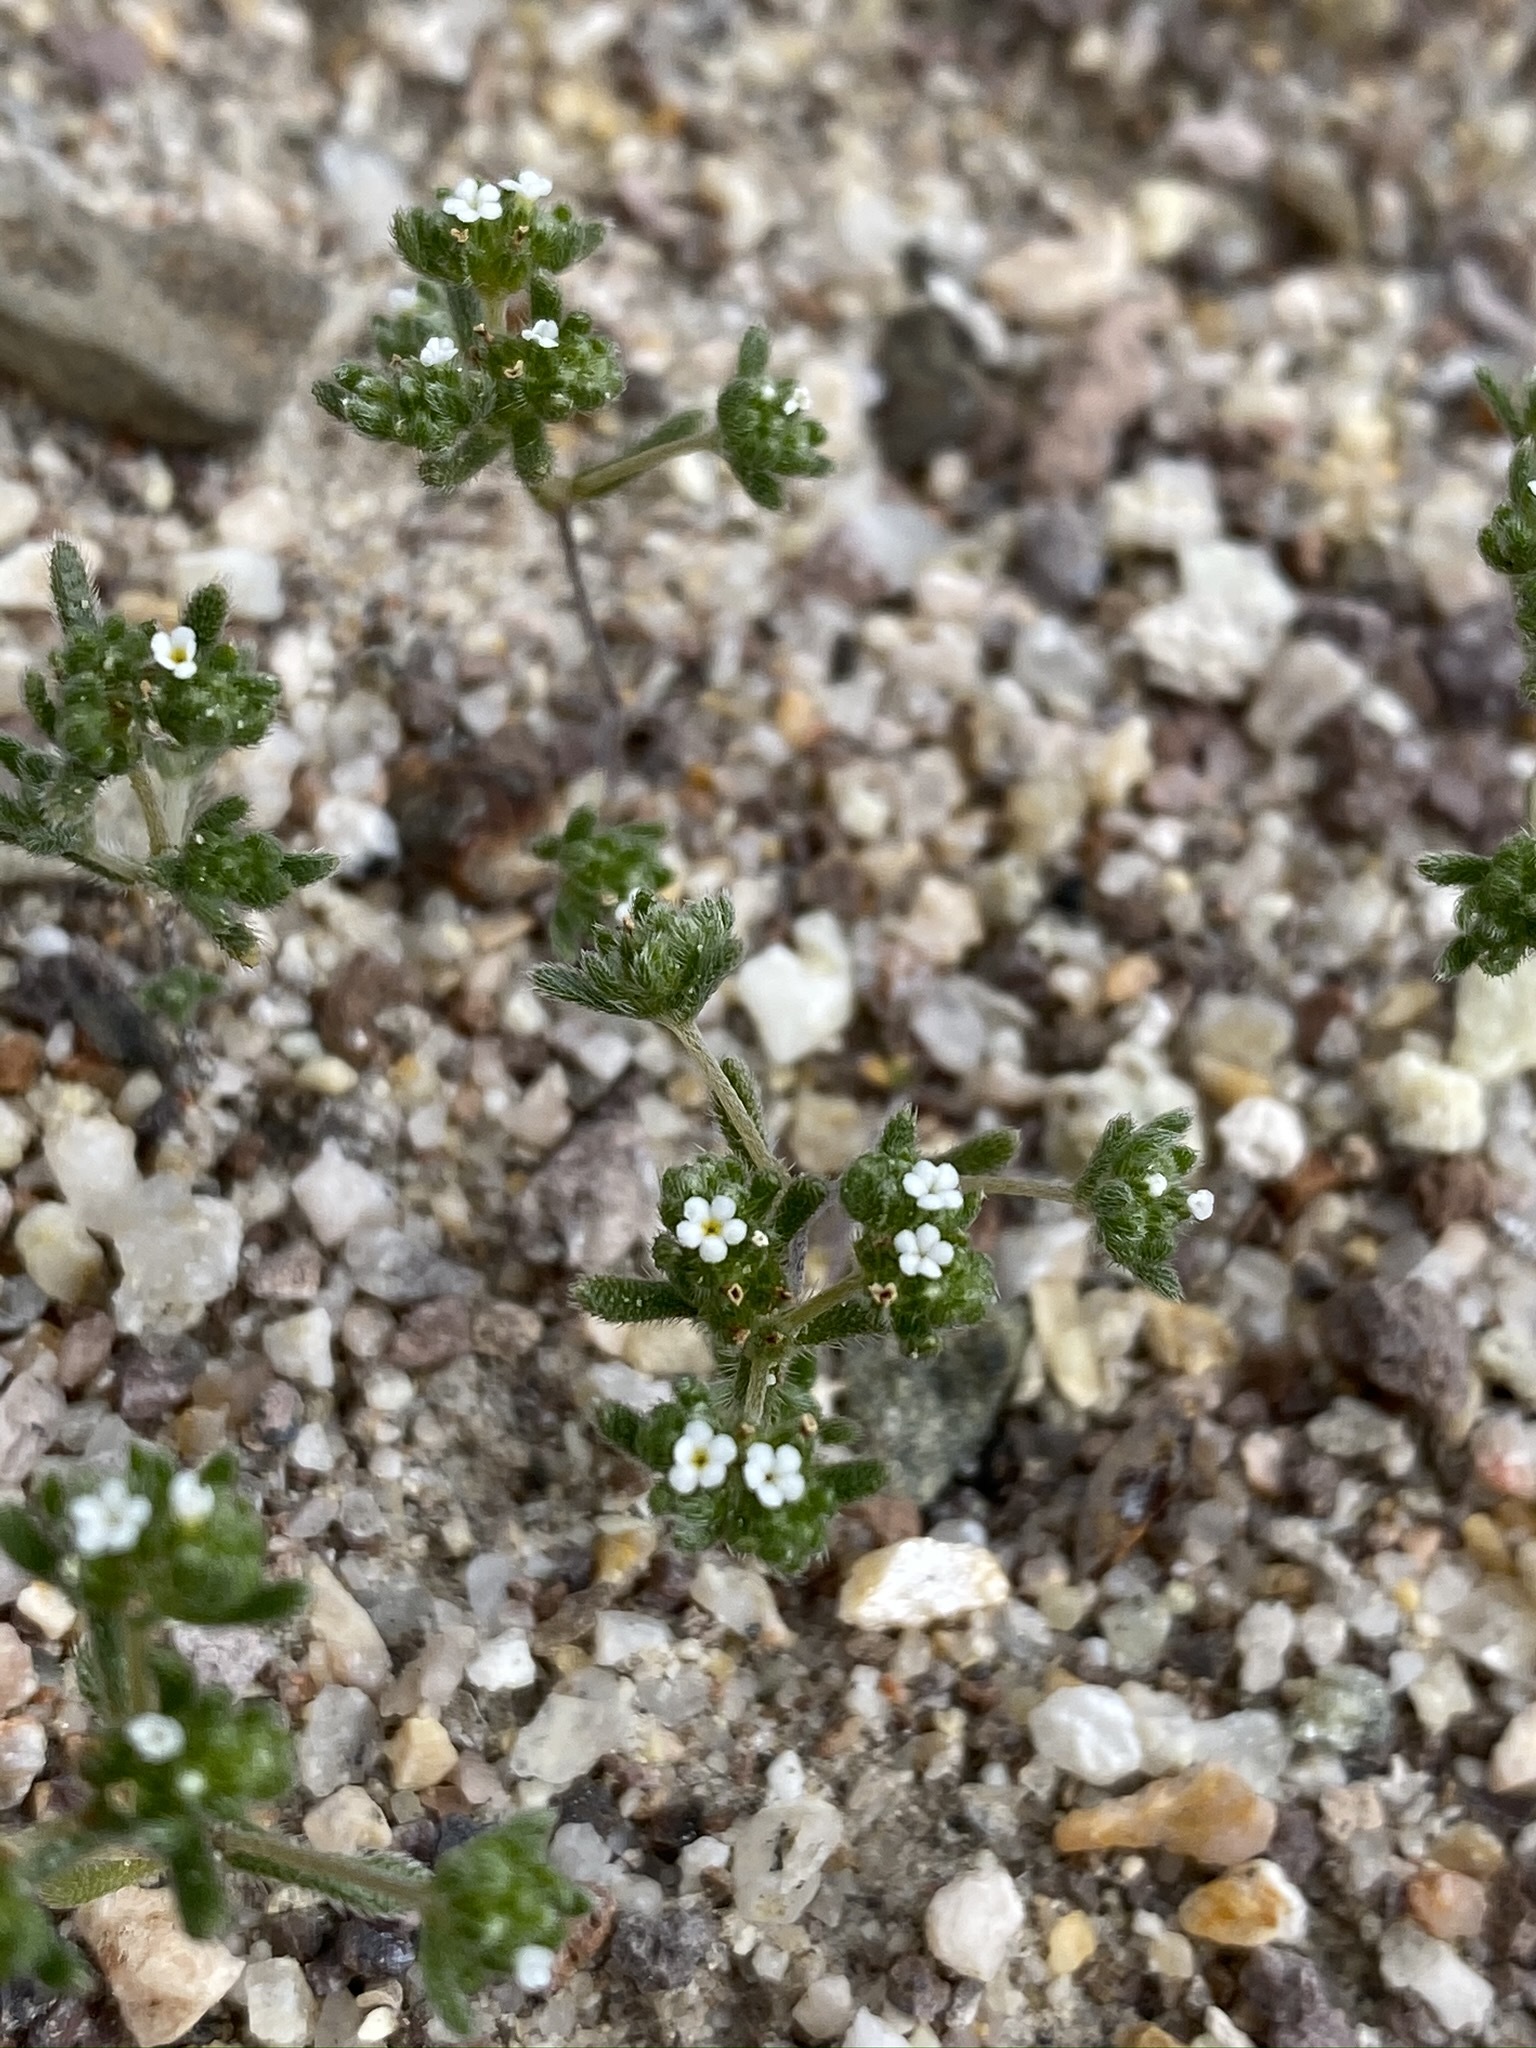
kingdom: Plantae
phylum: Tracheophyta
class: Magnoliopsida
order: Boraginales
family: Boraginaceae
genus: Eremocarya
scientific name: Eremocarya micrantha
